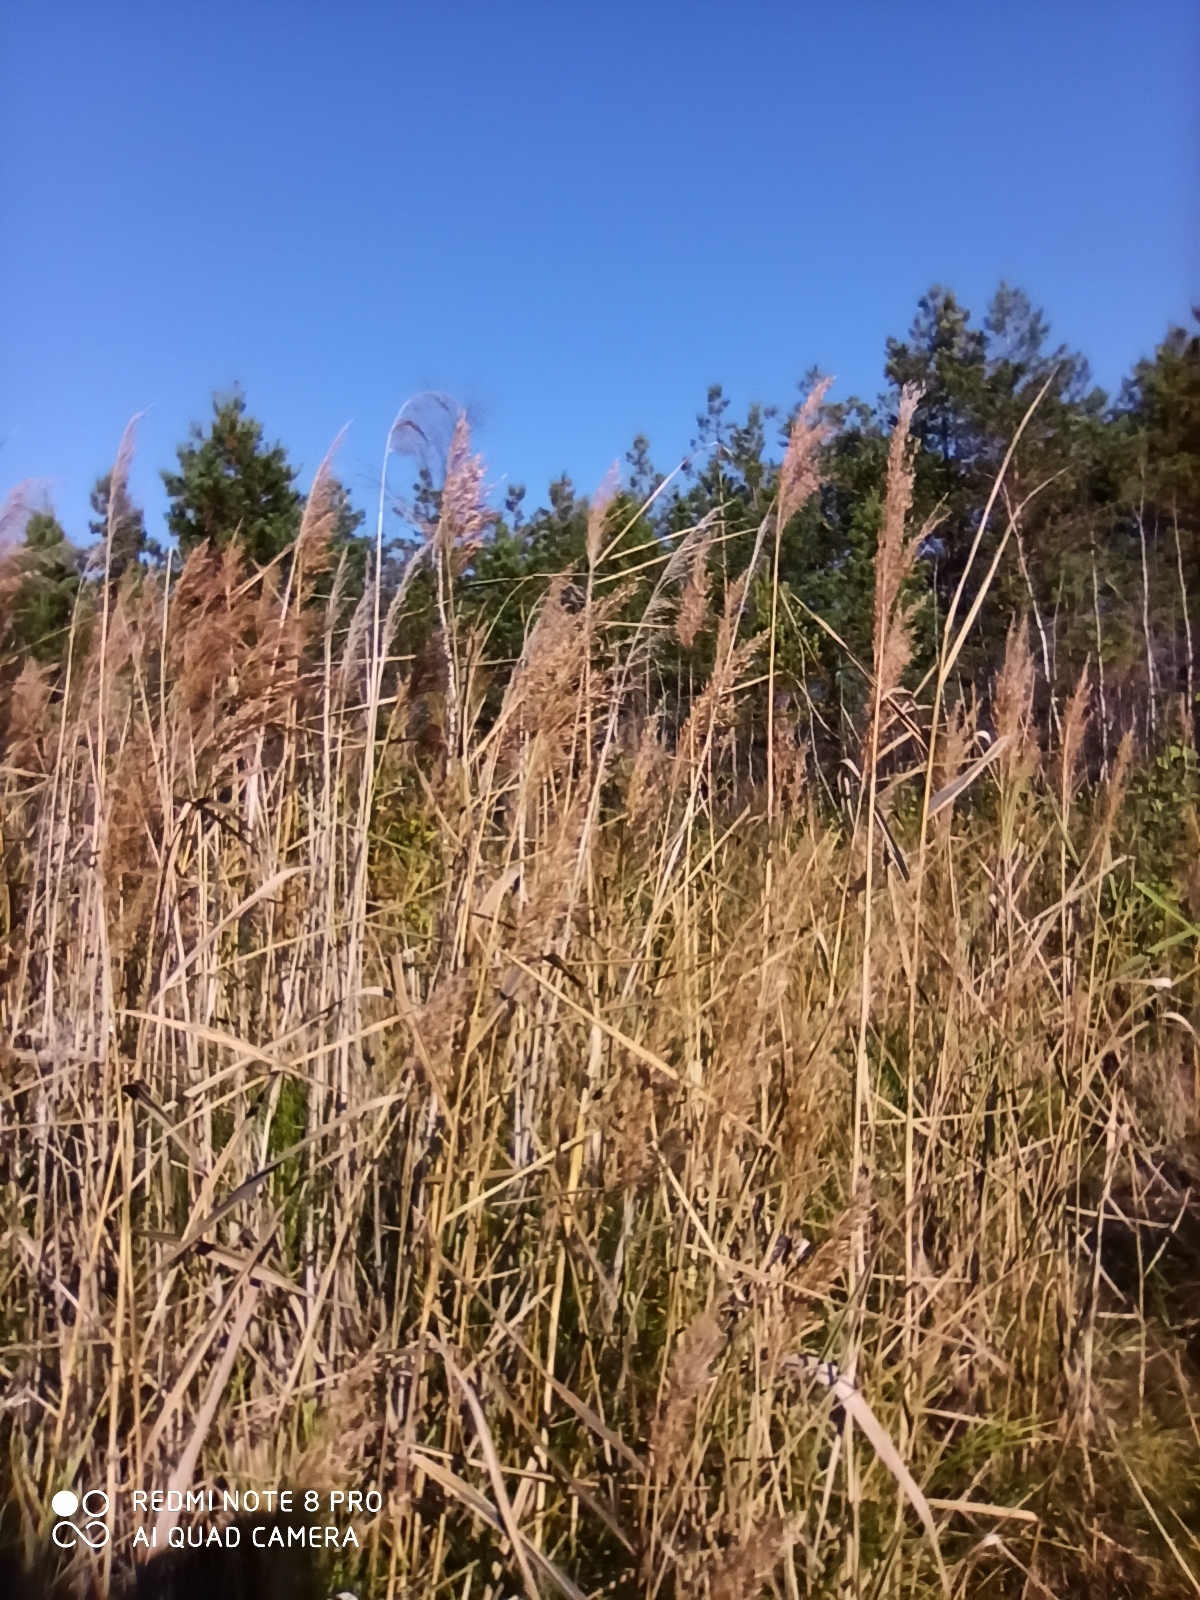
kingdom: Plantae
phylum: Tracheophyta
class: Liliopsida
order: Poales
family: Poaceae
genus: Phragmites
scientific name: Phragmites australis
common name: Common reed
